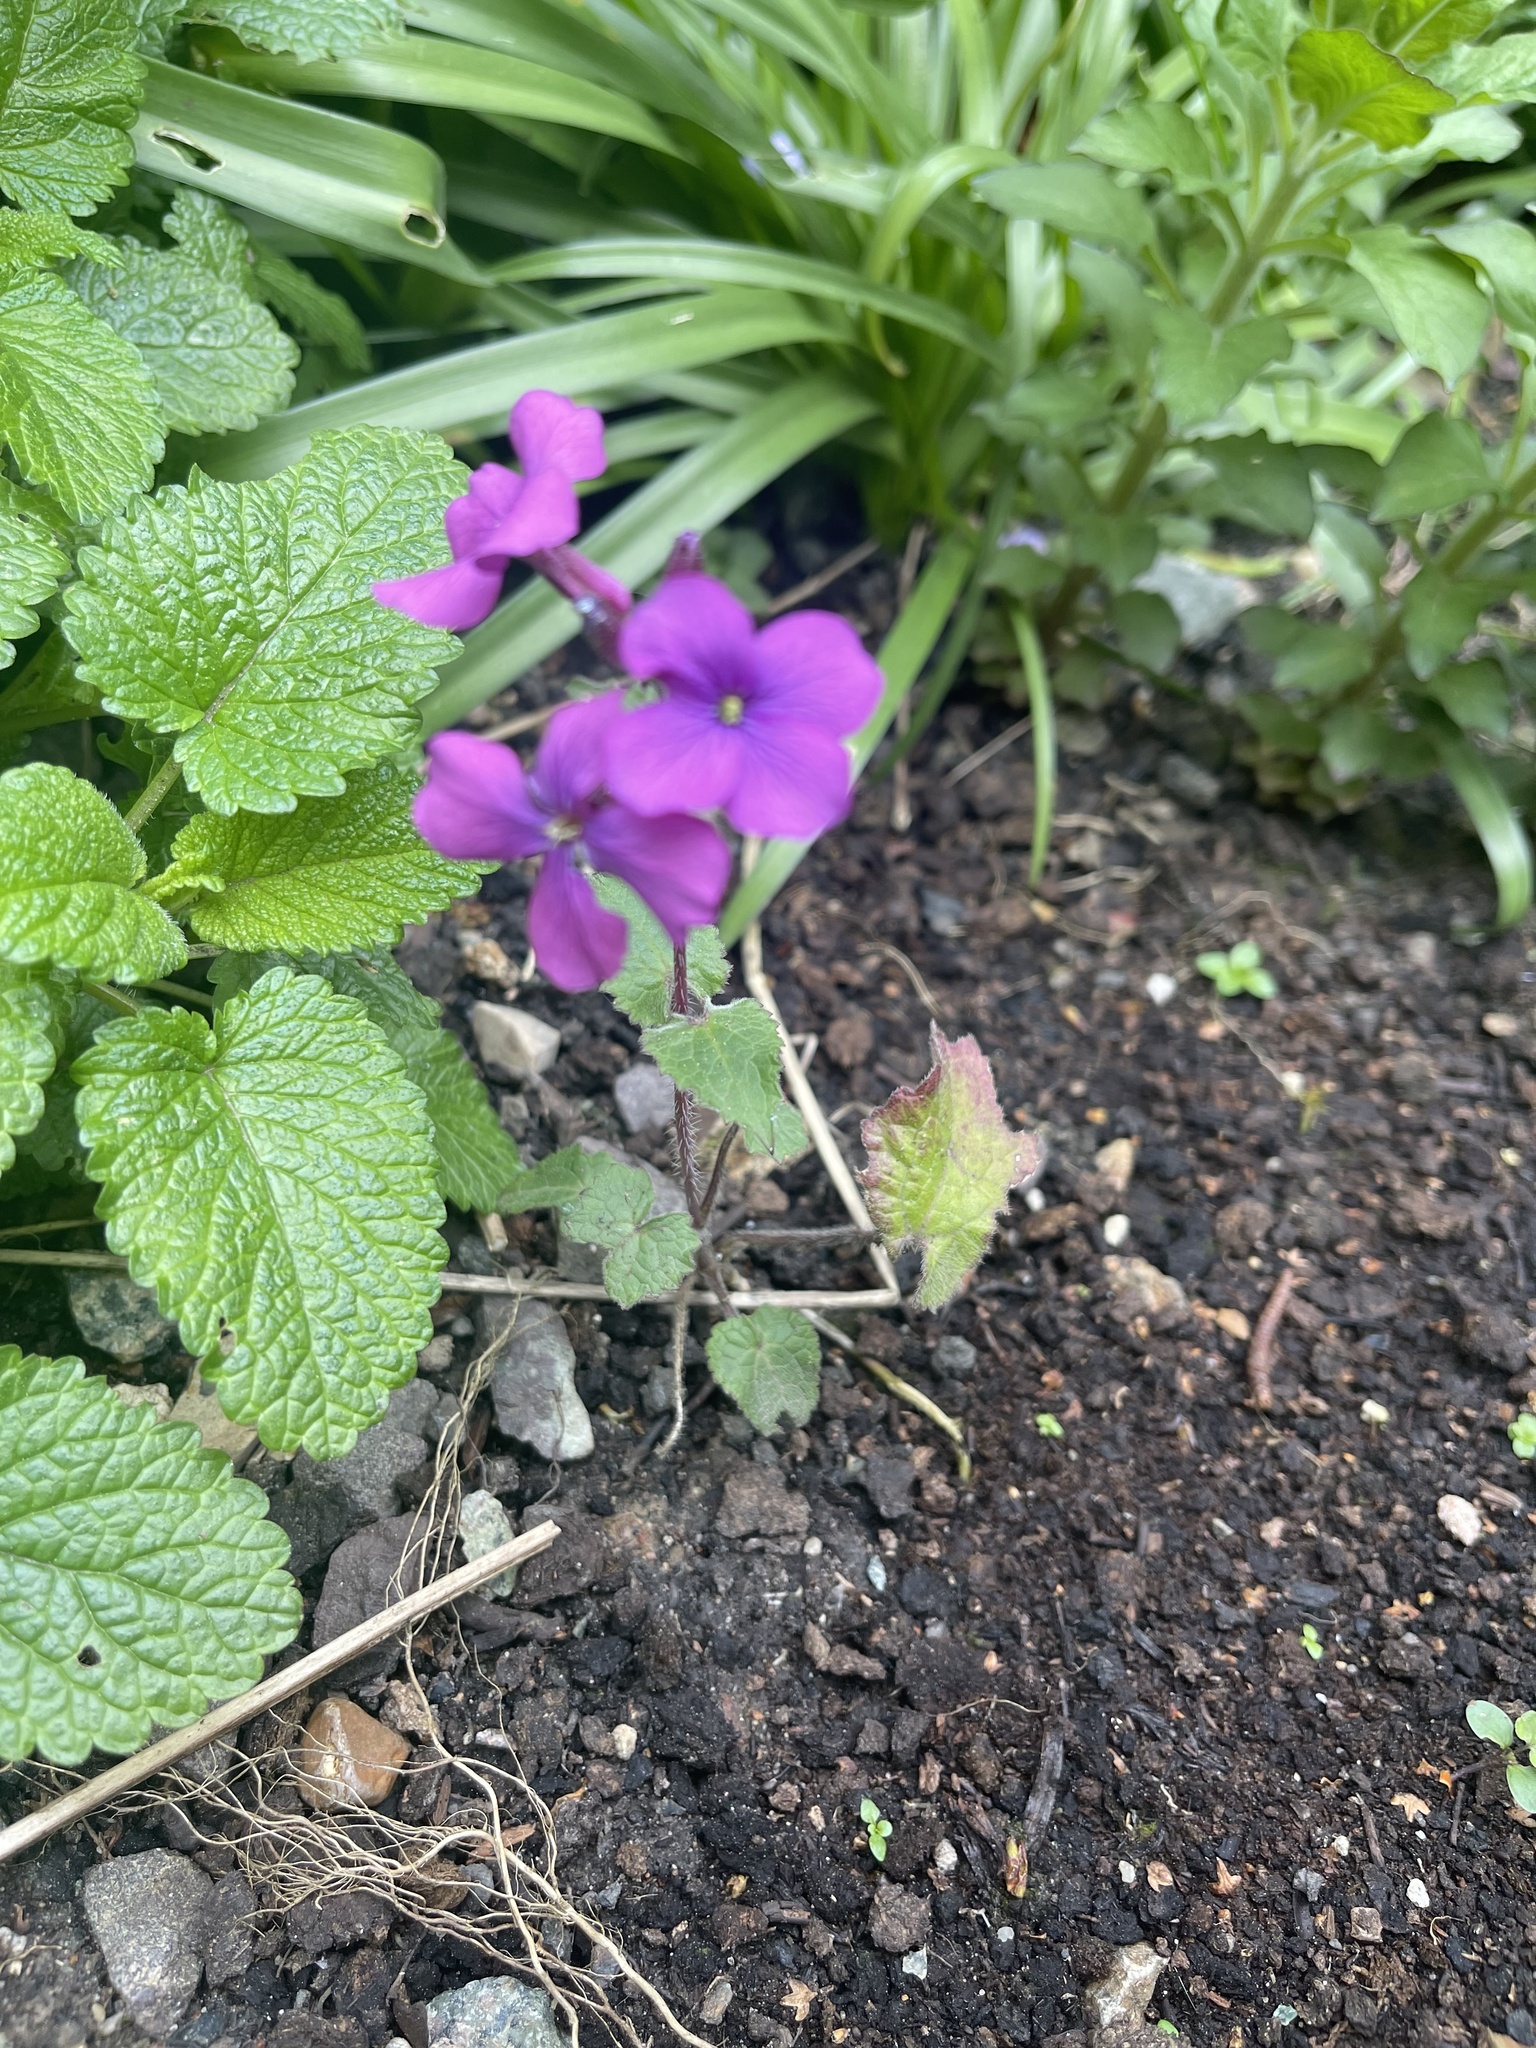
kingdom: Plantae
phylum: Tracheophyta
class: Magnoliopsida
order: Brassicales
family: Brassicaceae
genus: Lunaria
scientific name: Lunaria annua
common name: Honesty
